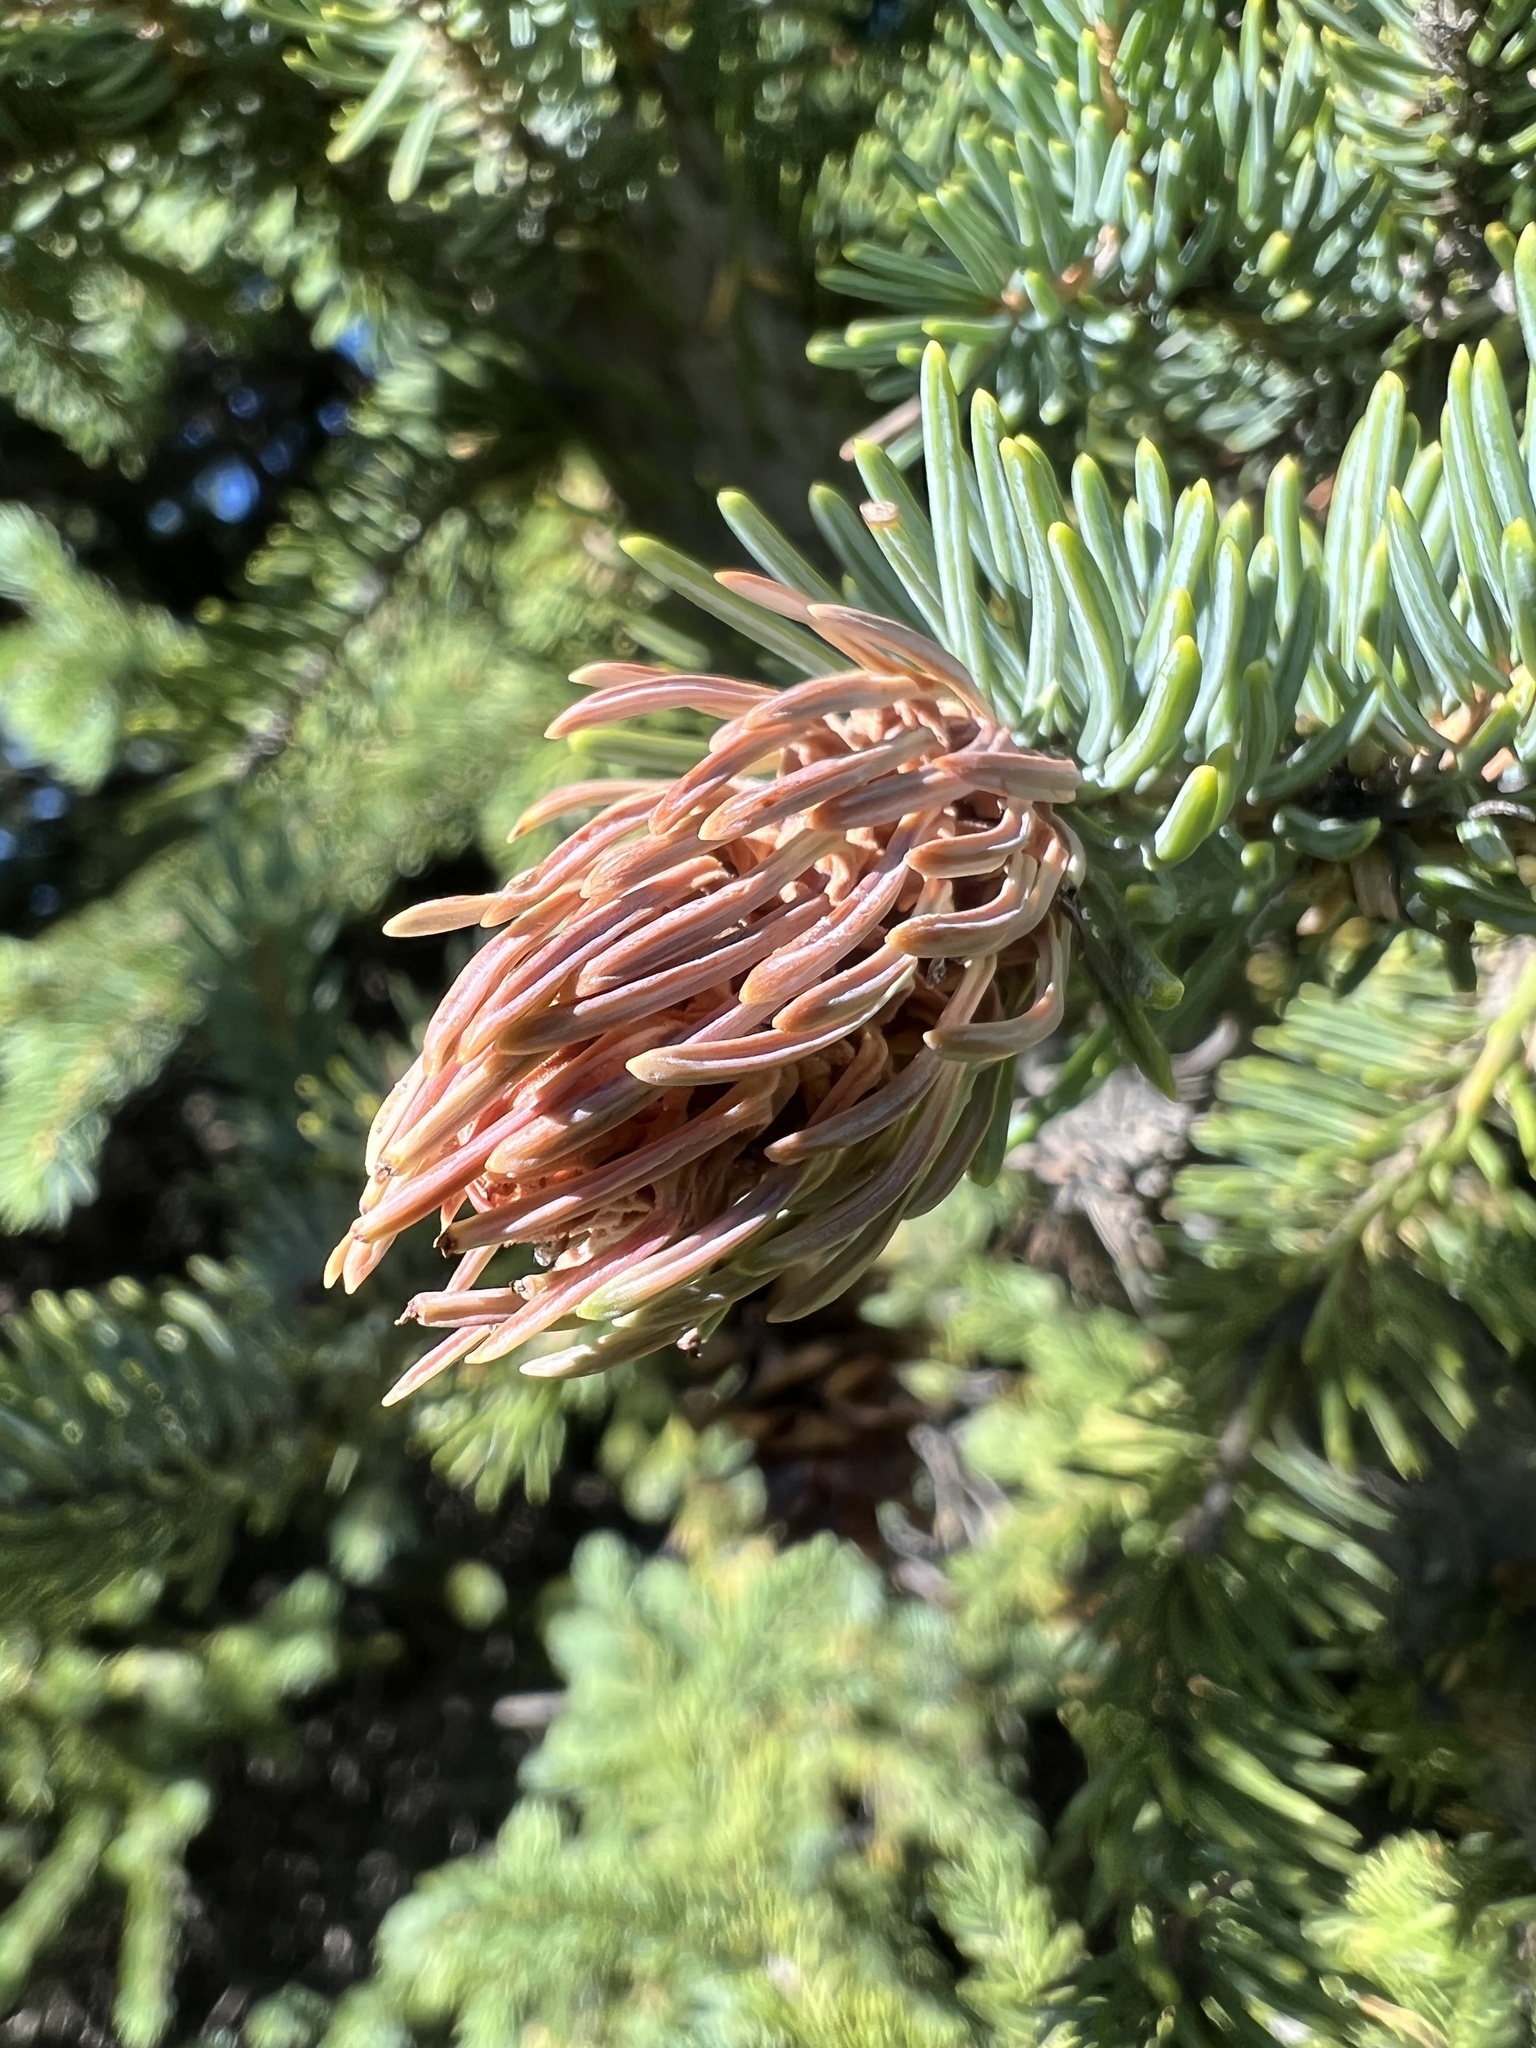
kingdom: Animalia
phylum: Arthropoda
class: Insecta
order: Hemiptera
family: Adelgidae
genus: Adelges
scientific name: Adelges cooleyi
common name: Cooley spruce gall adelgid
